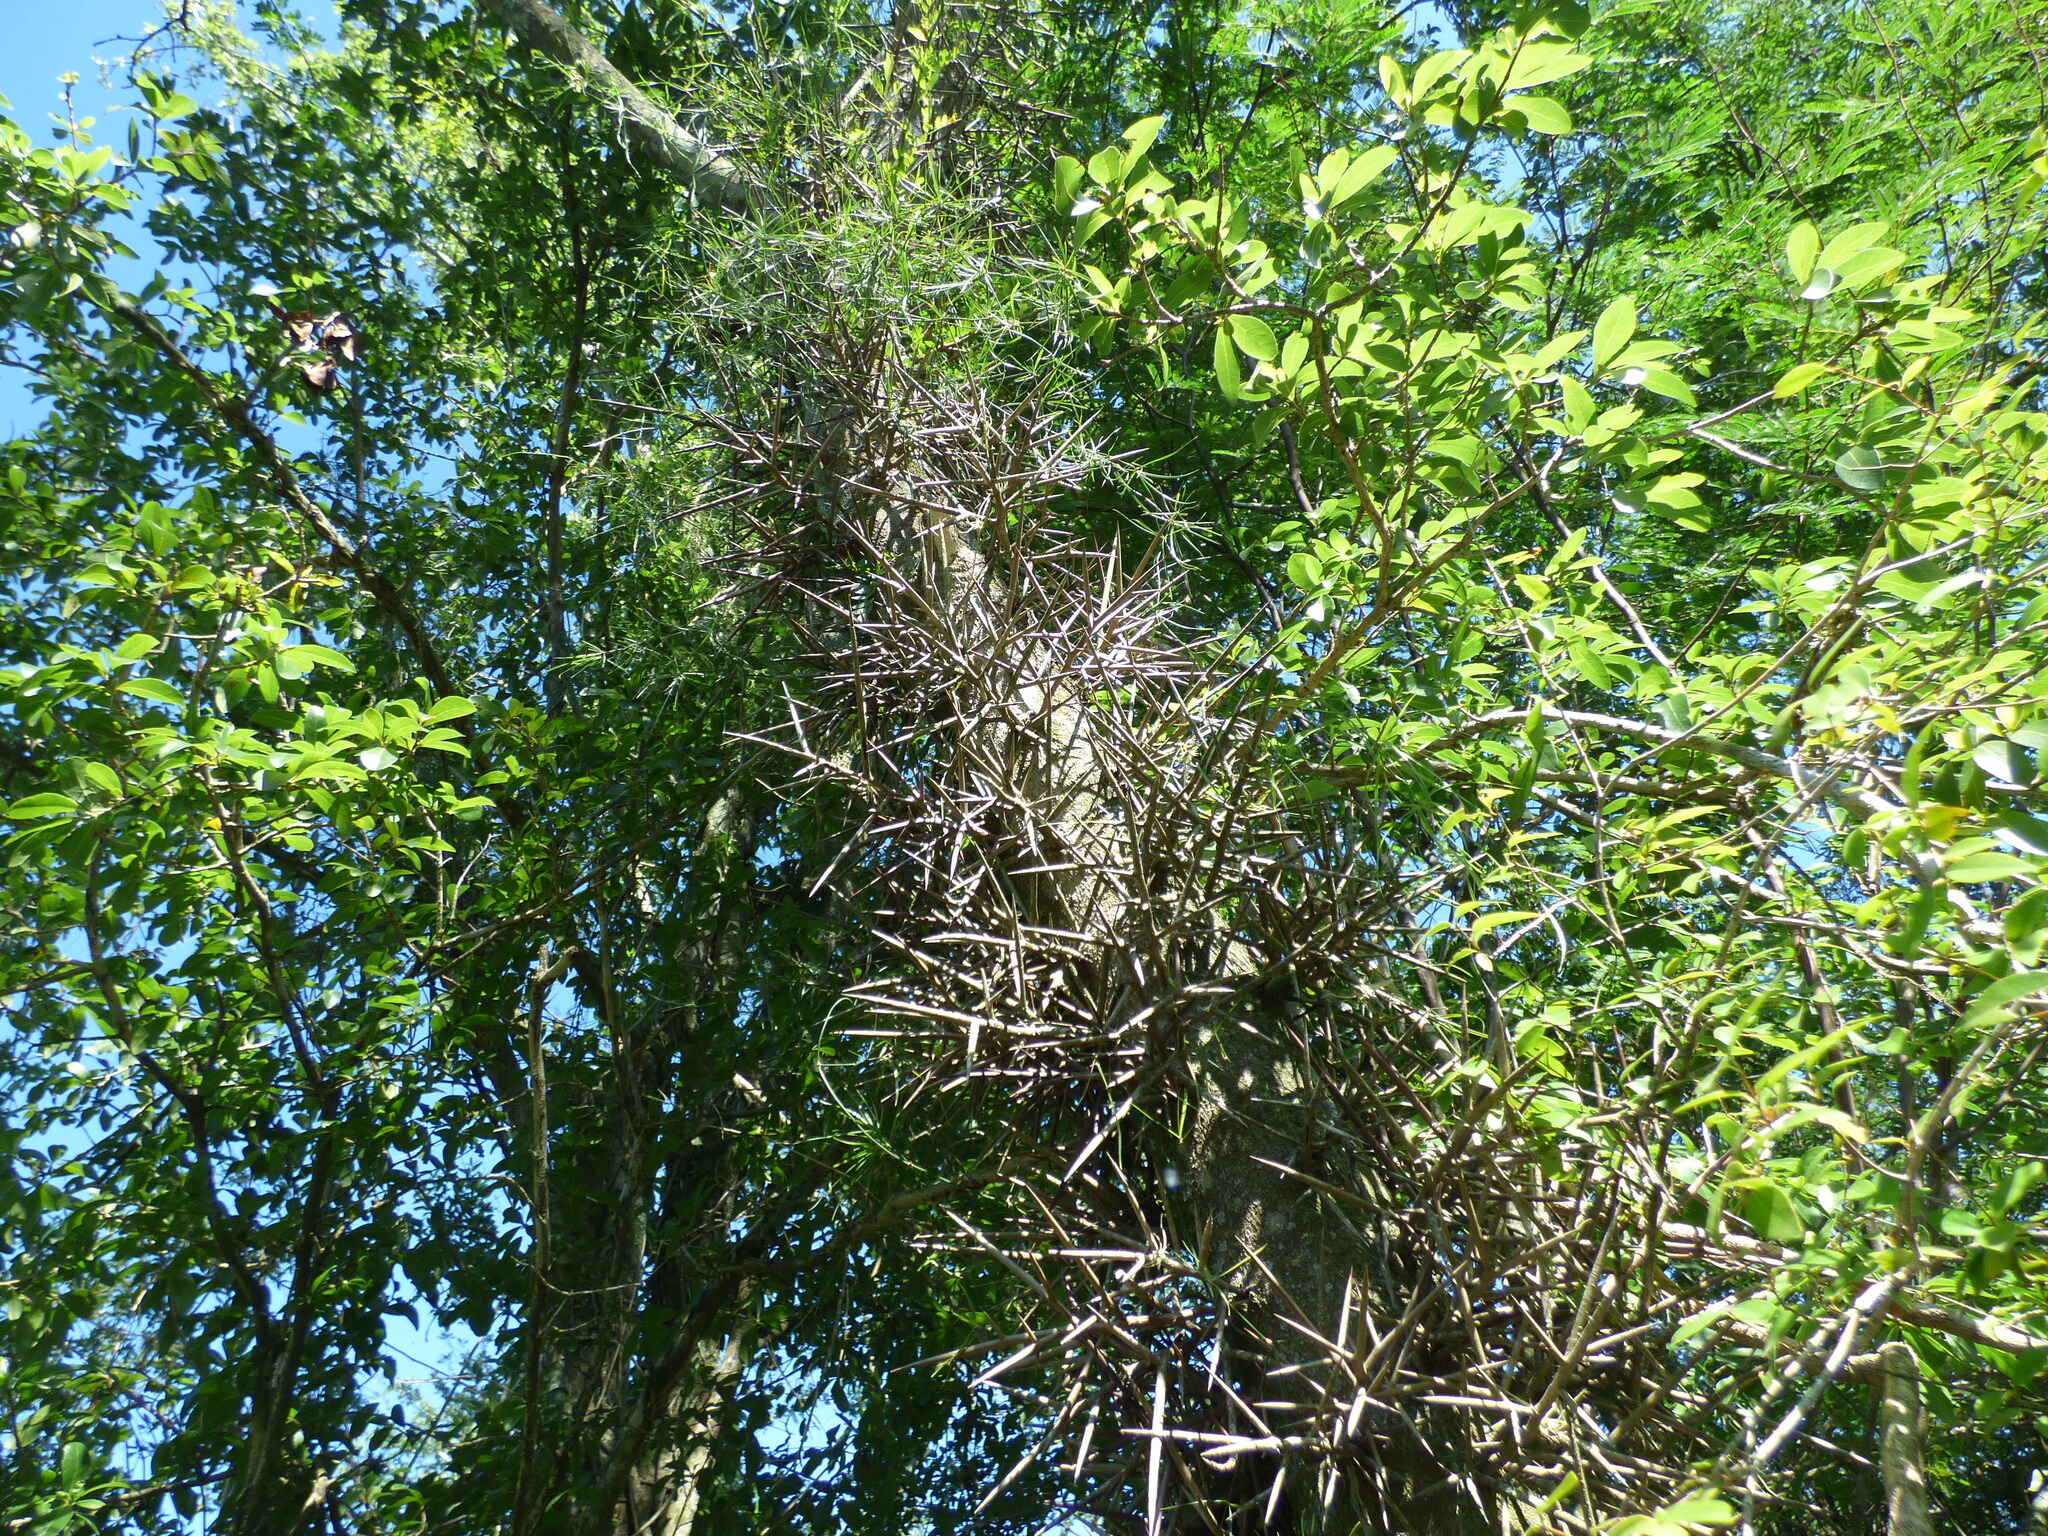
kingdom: Plantae
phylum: Tracheophyta
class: Magnoliopsida
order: Fabales
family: Fabaceae
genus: Gleditsia
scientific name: Gleditsia amorphoides
